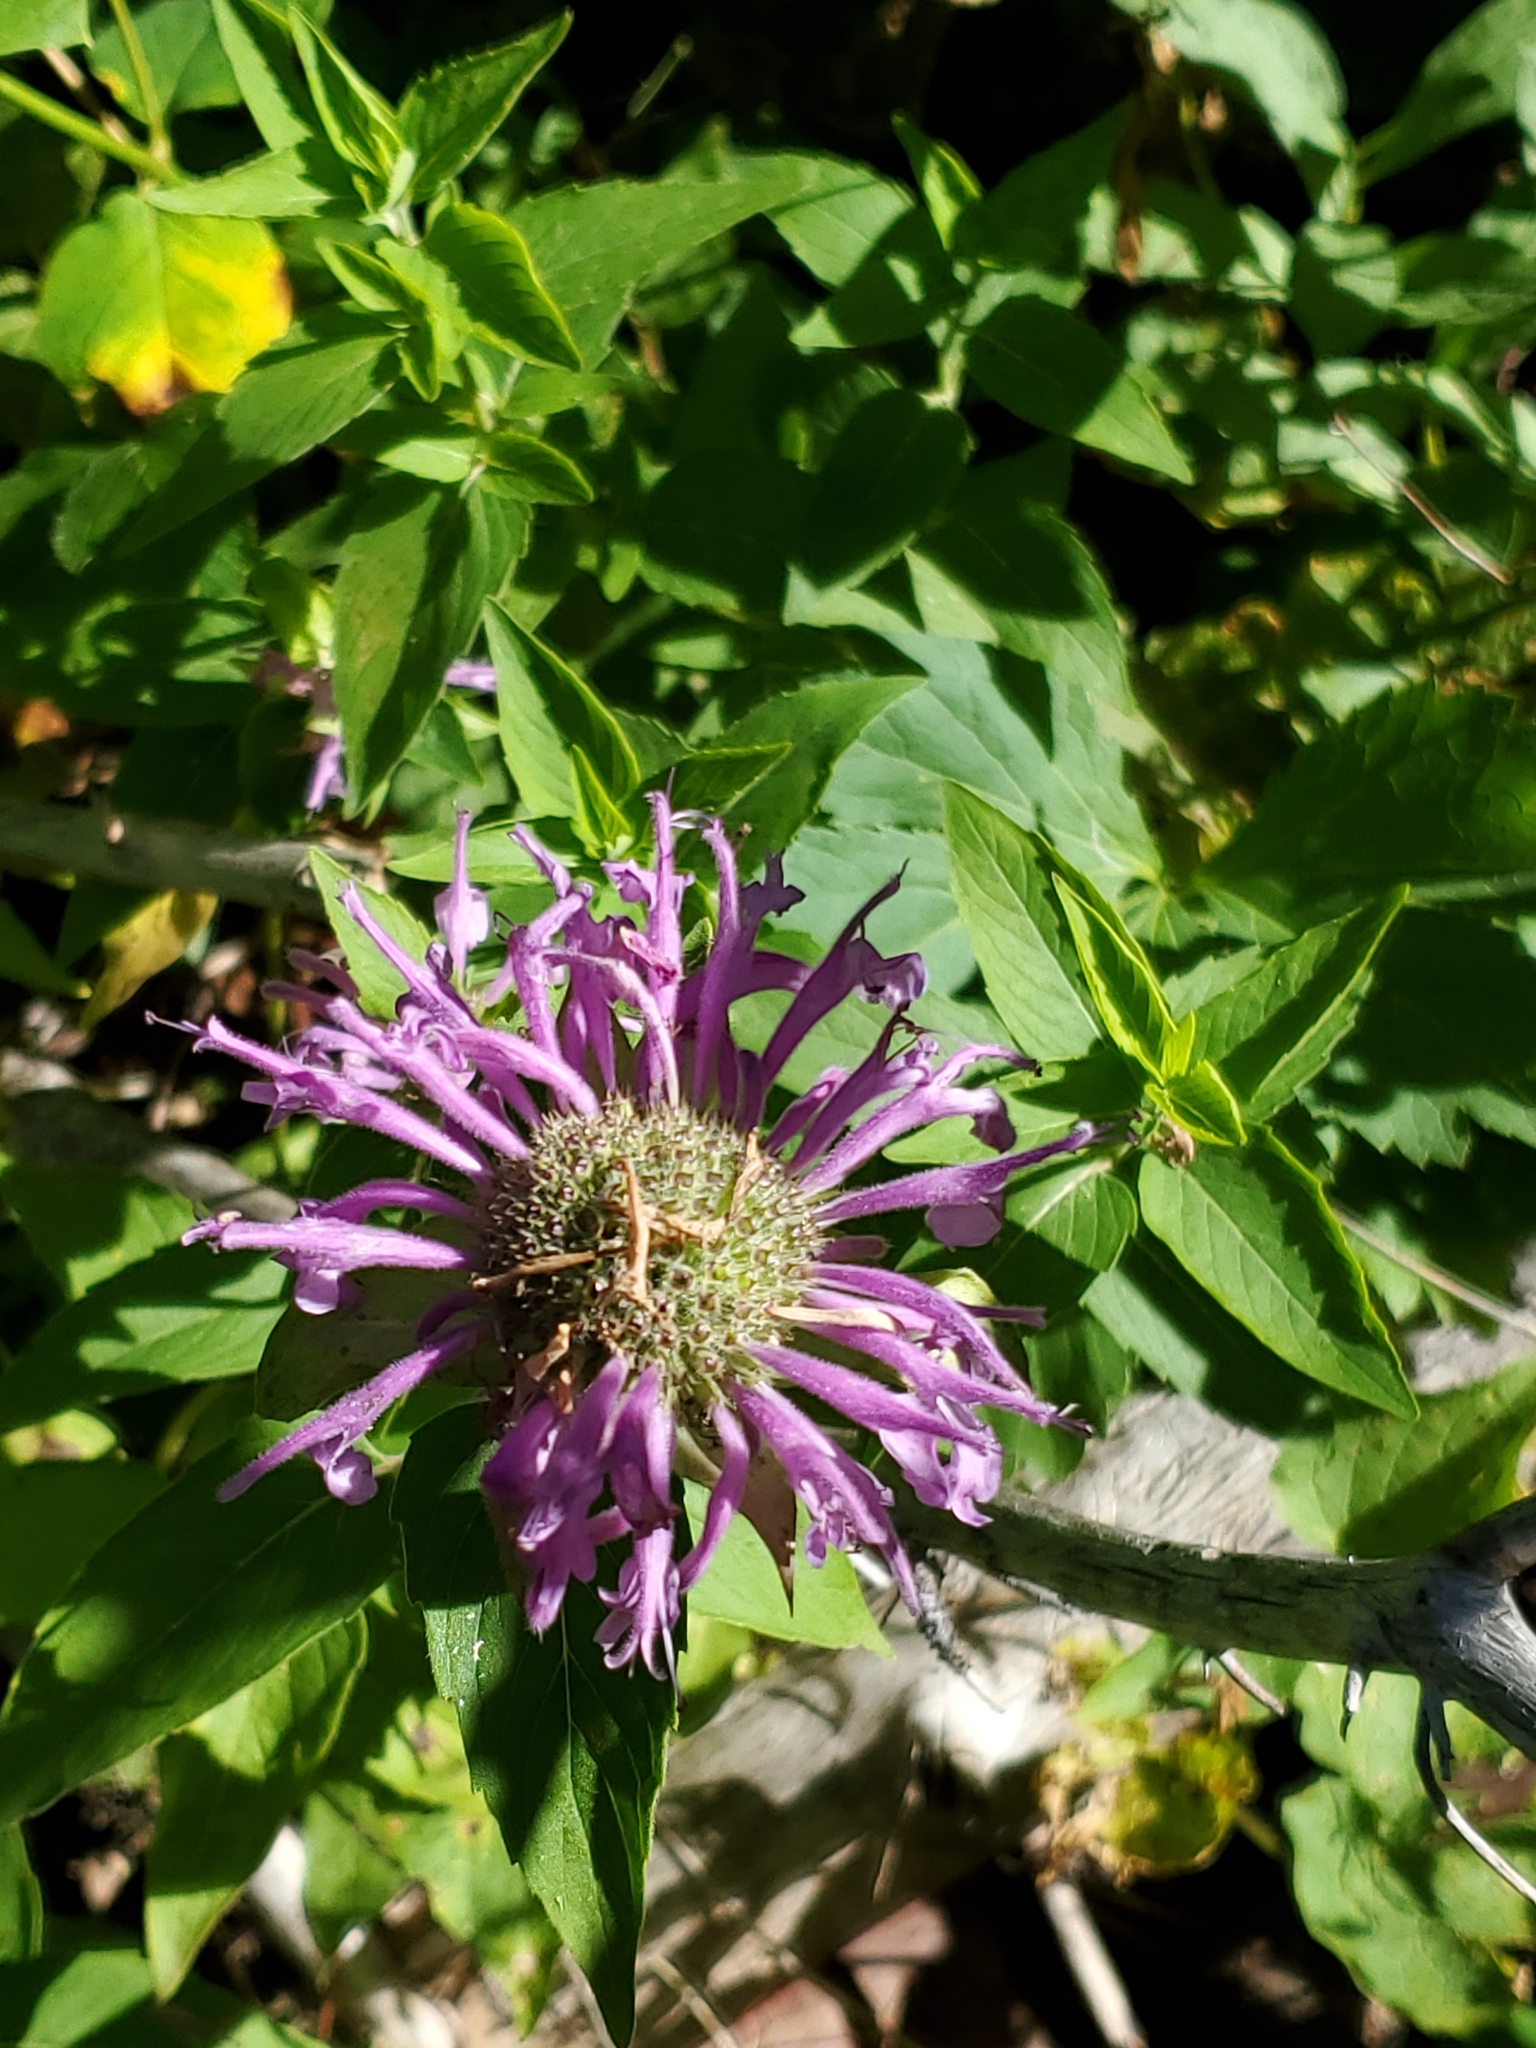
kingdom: Plantae
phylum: Tracheophyta
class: Magnoliopsida
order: Lamiales
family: Lamiaceae
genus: Monarda
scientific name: Monarda fistulosa
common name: Purple beebalm
